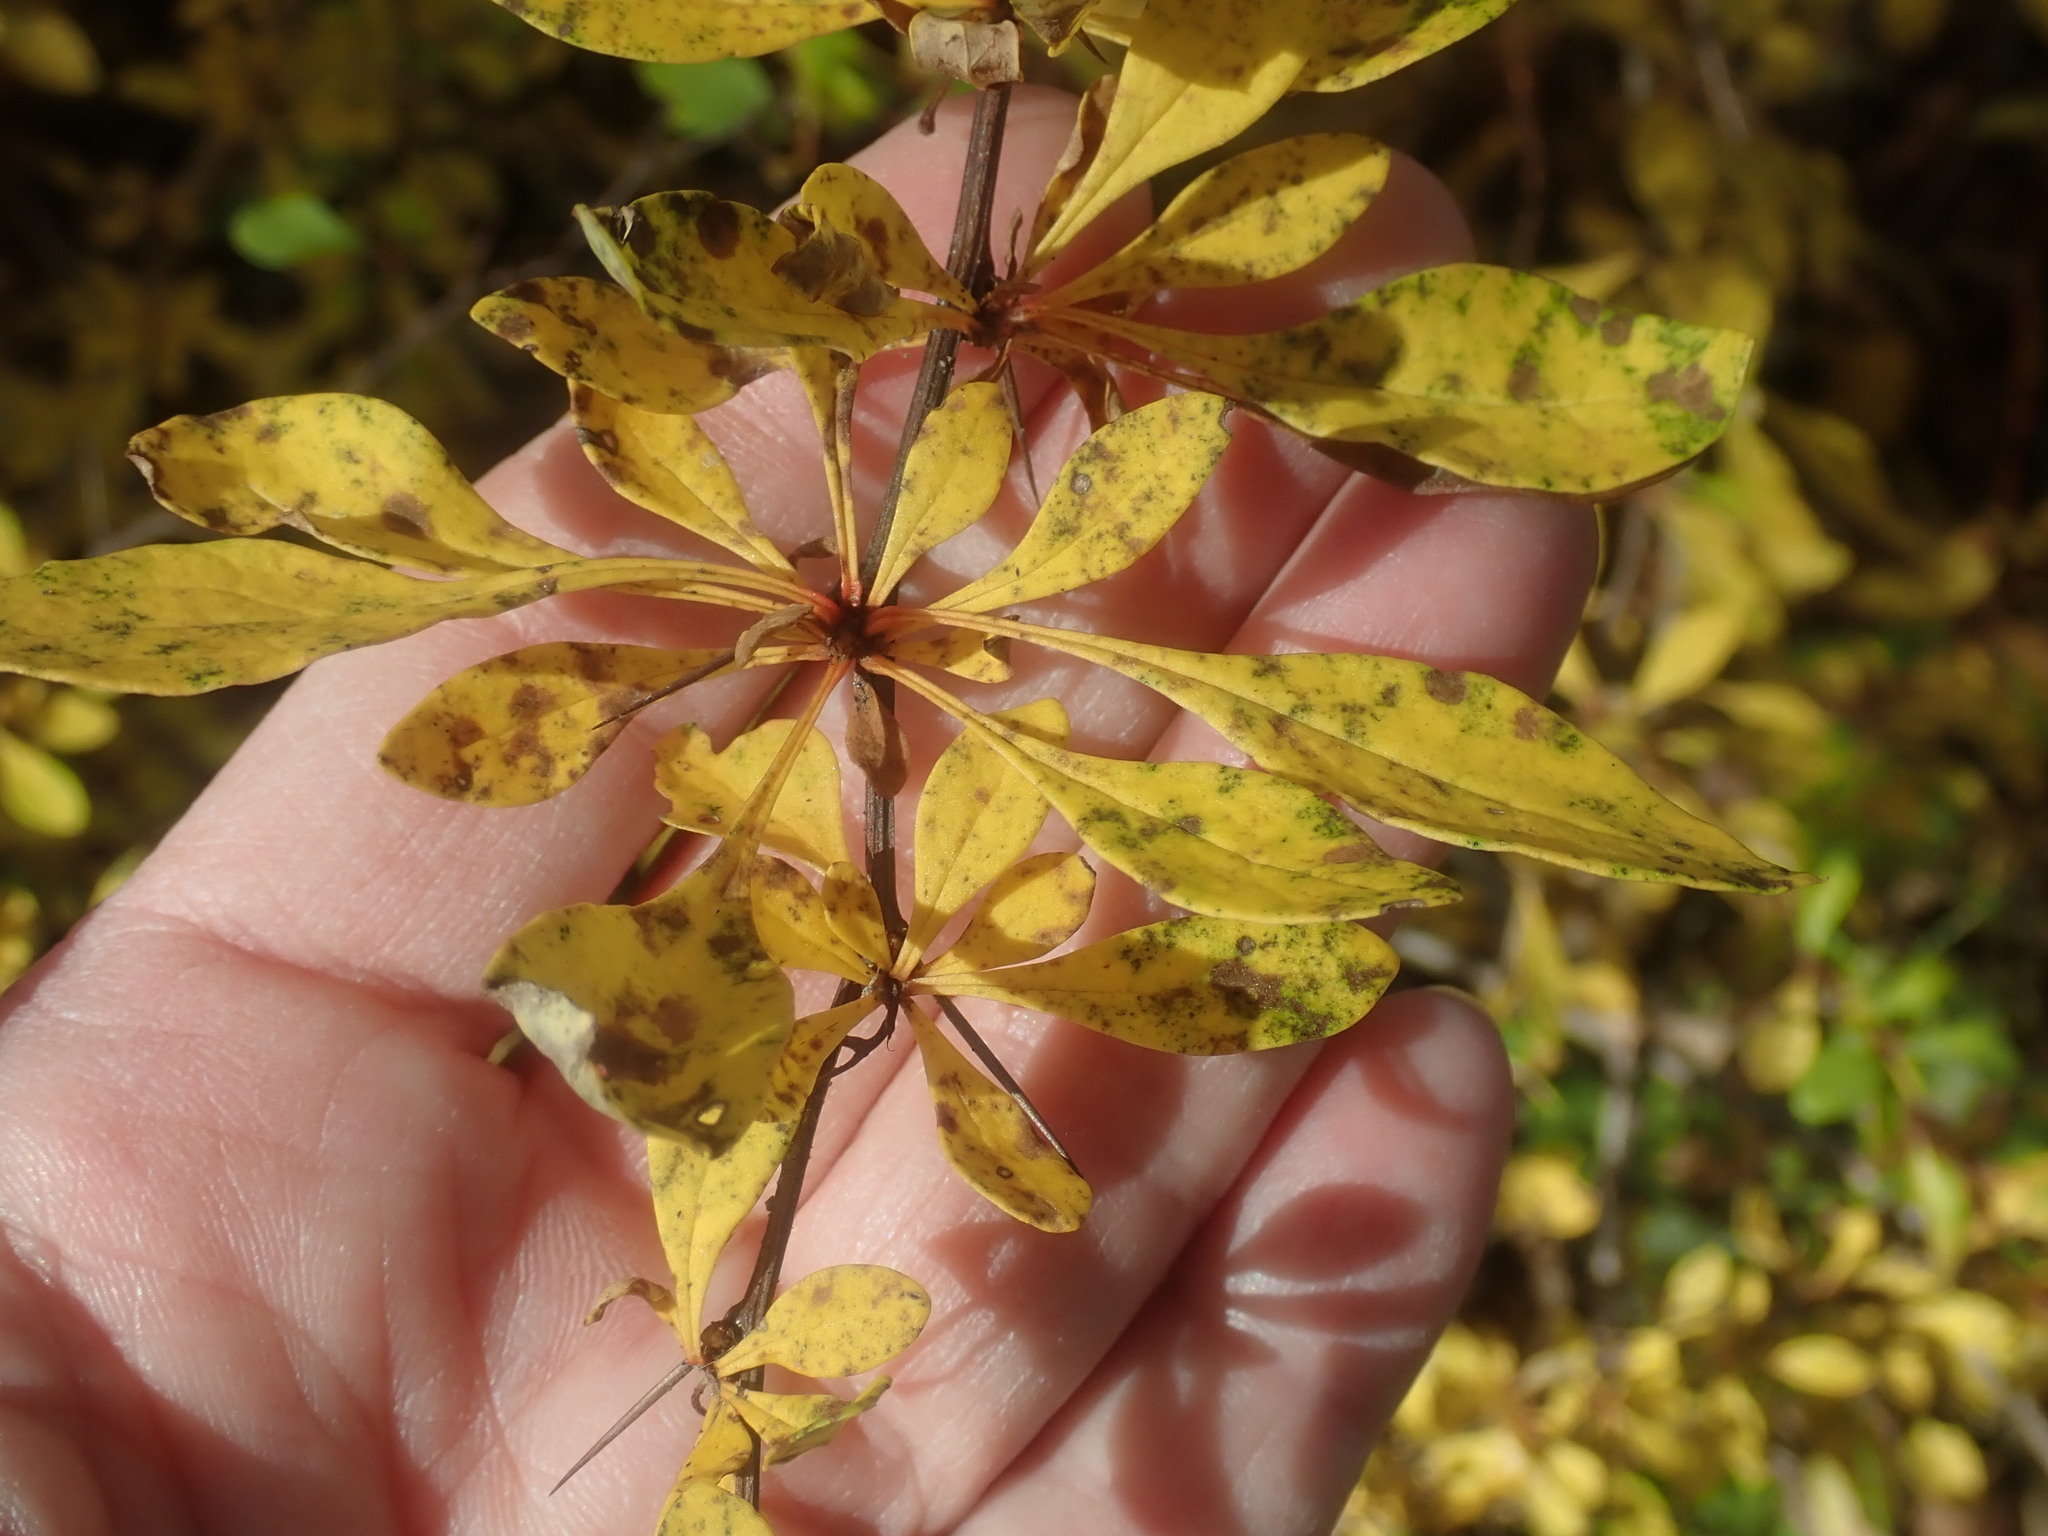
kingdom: Plantae
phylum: Tracheophyta
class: Magnoliopsida
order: Ranunculales
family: Berberidaceae
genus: Berberis
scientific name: Berberis thunbergii
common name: Japanese barberry
